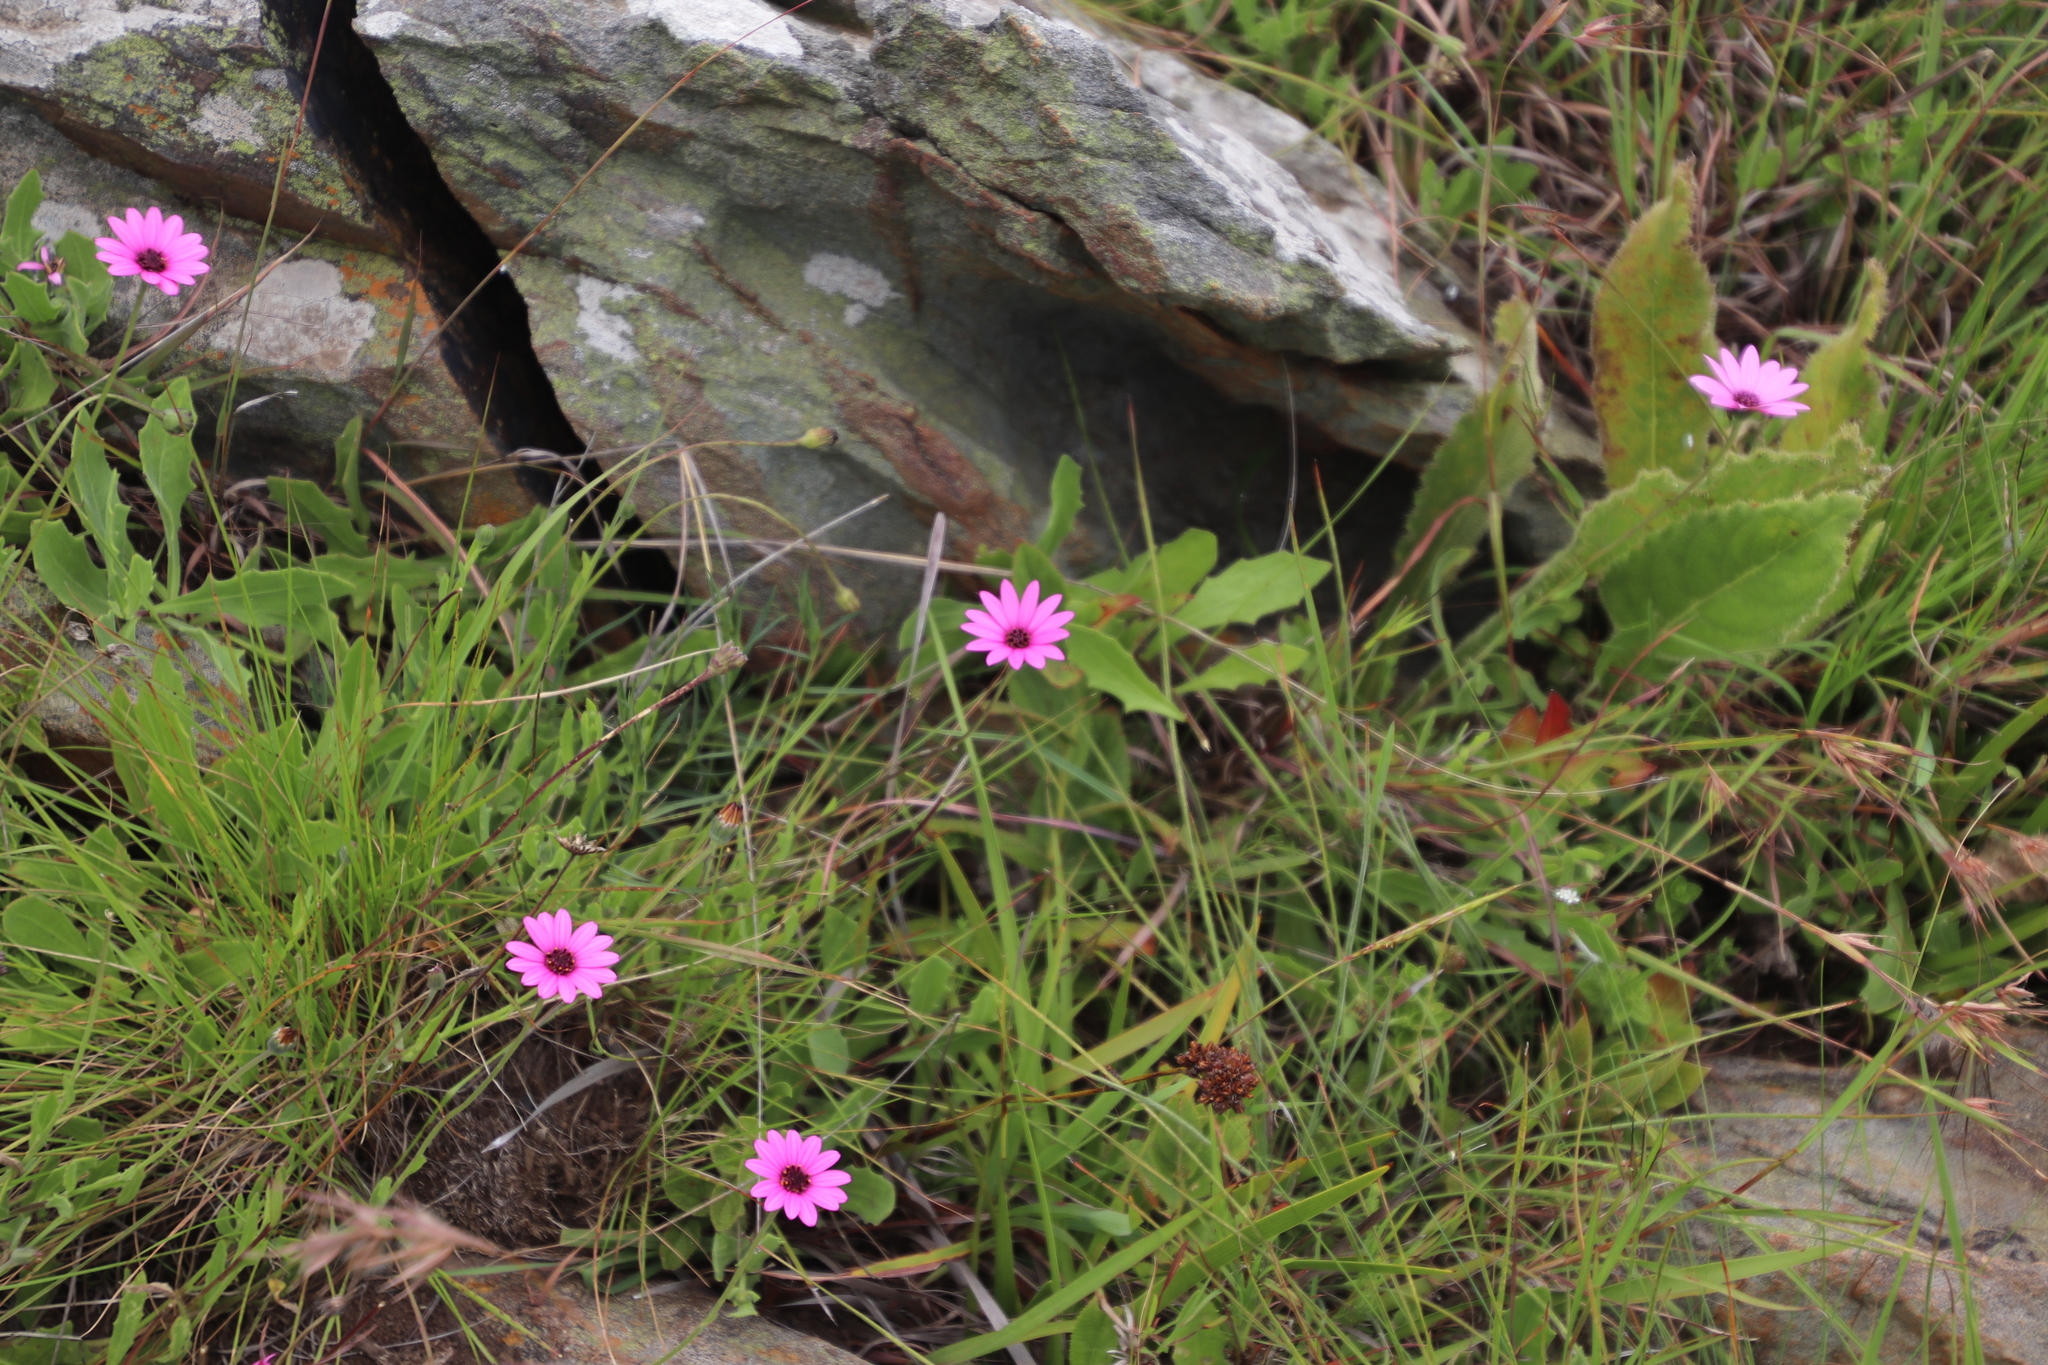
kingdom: Plantae
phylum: Tracheophyta
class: Magnoliopsida
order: Asterales
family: Asteraceae
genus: Dimorphotheca
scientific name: Dimorphotheca jucunda
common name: Osteospermum
